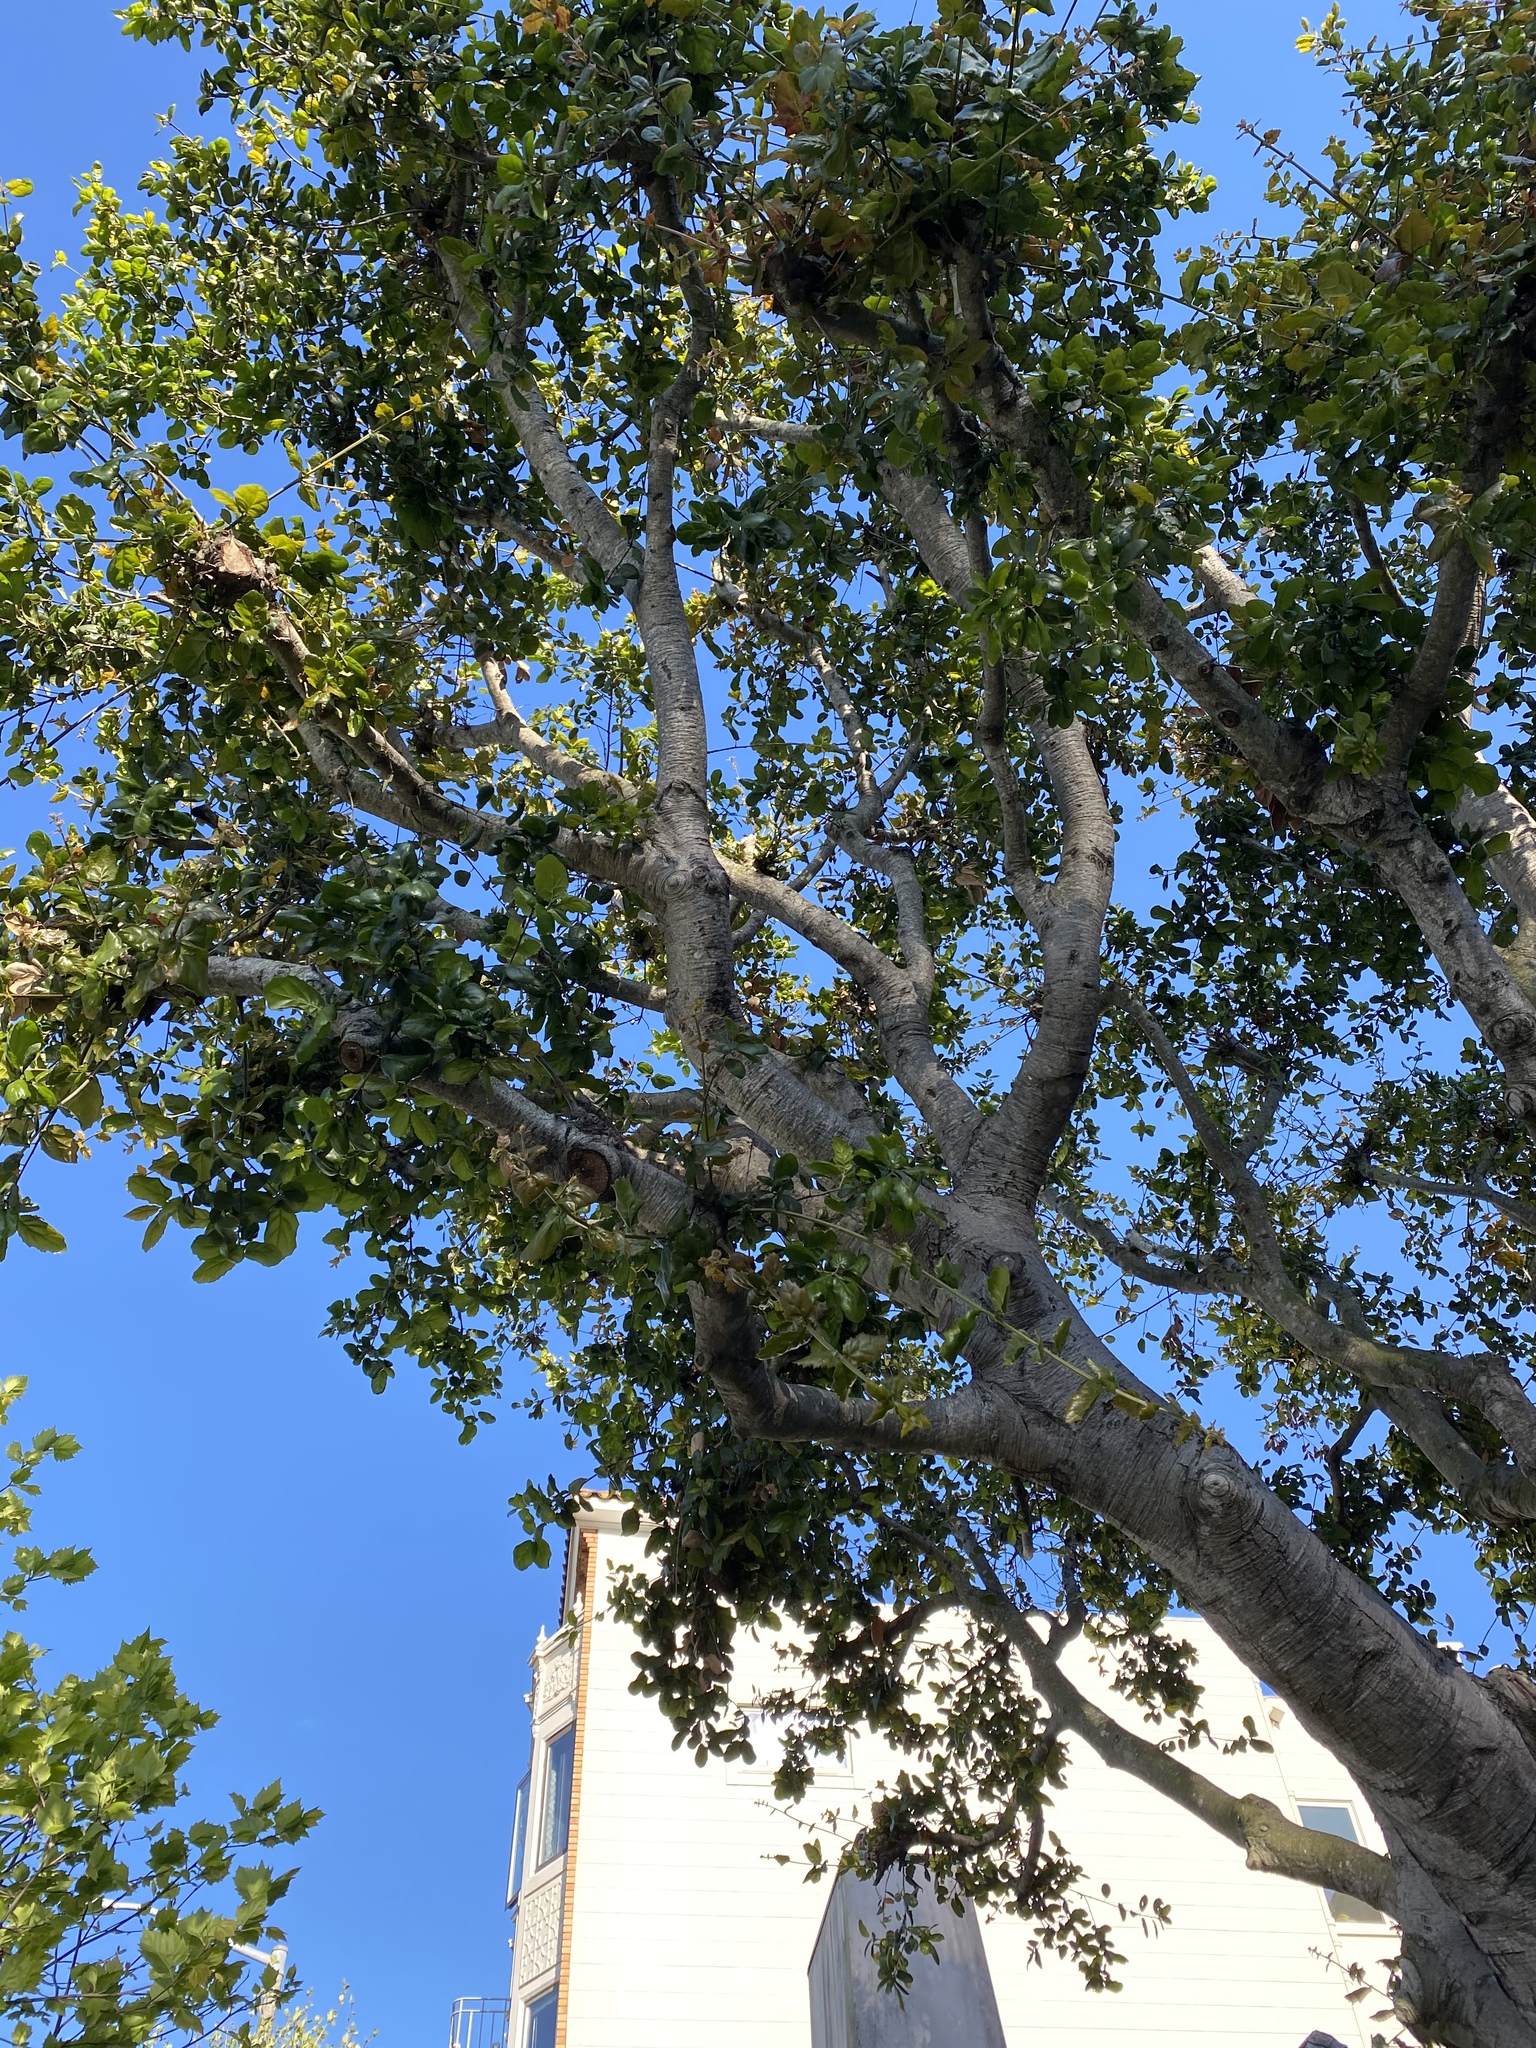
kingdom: Plantae
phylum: Tracheophyta
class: Magnoliopsida
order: Fagales
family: Fagaceae
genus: Quercus
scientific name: Quercus agrifolia
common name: California live oak
